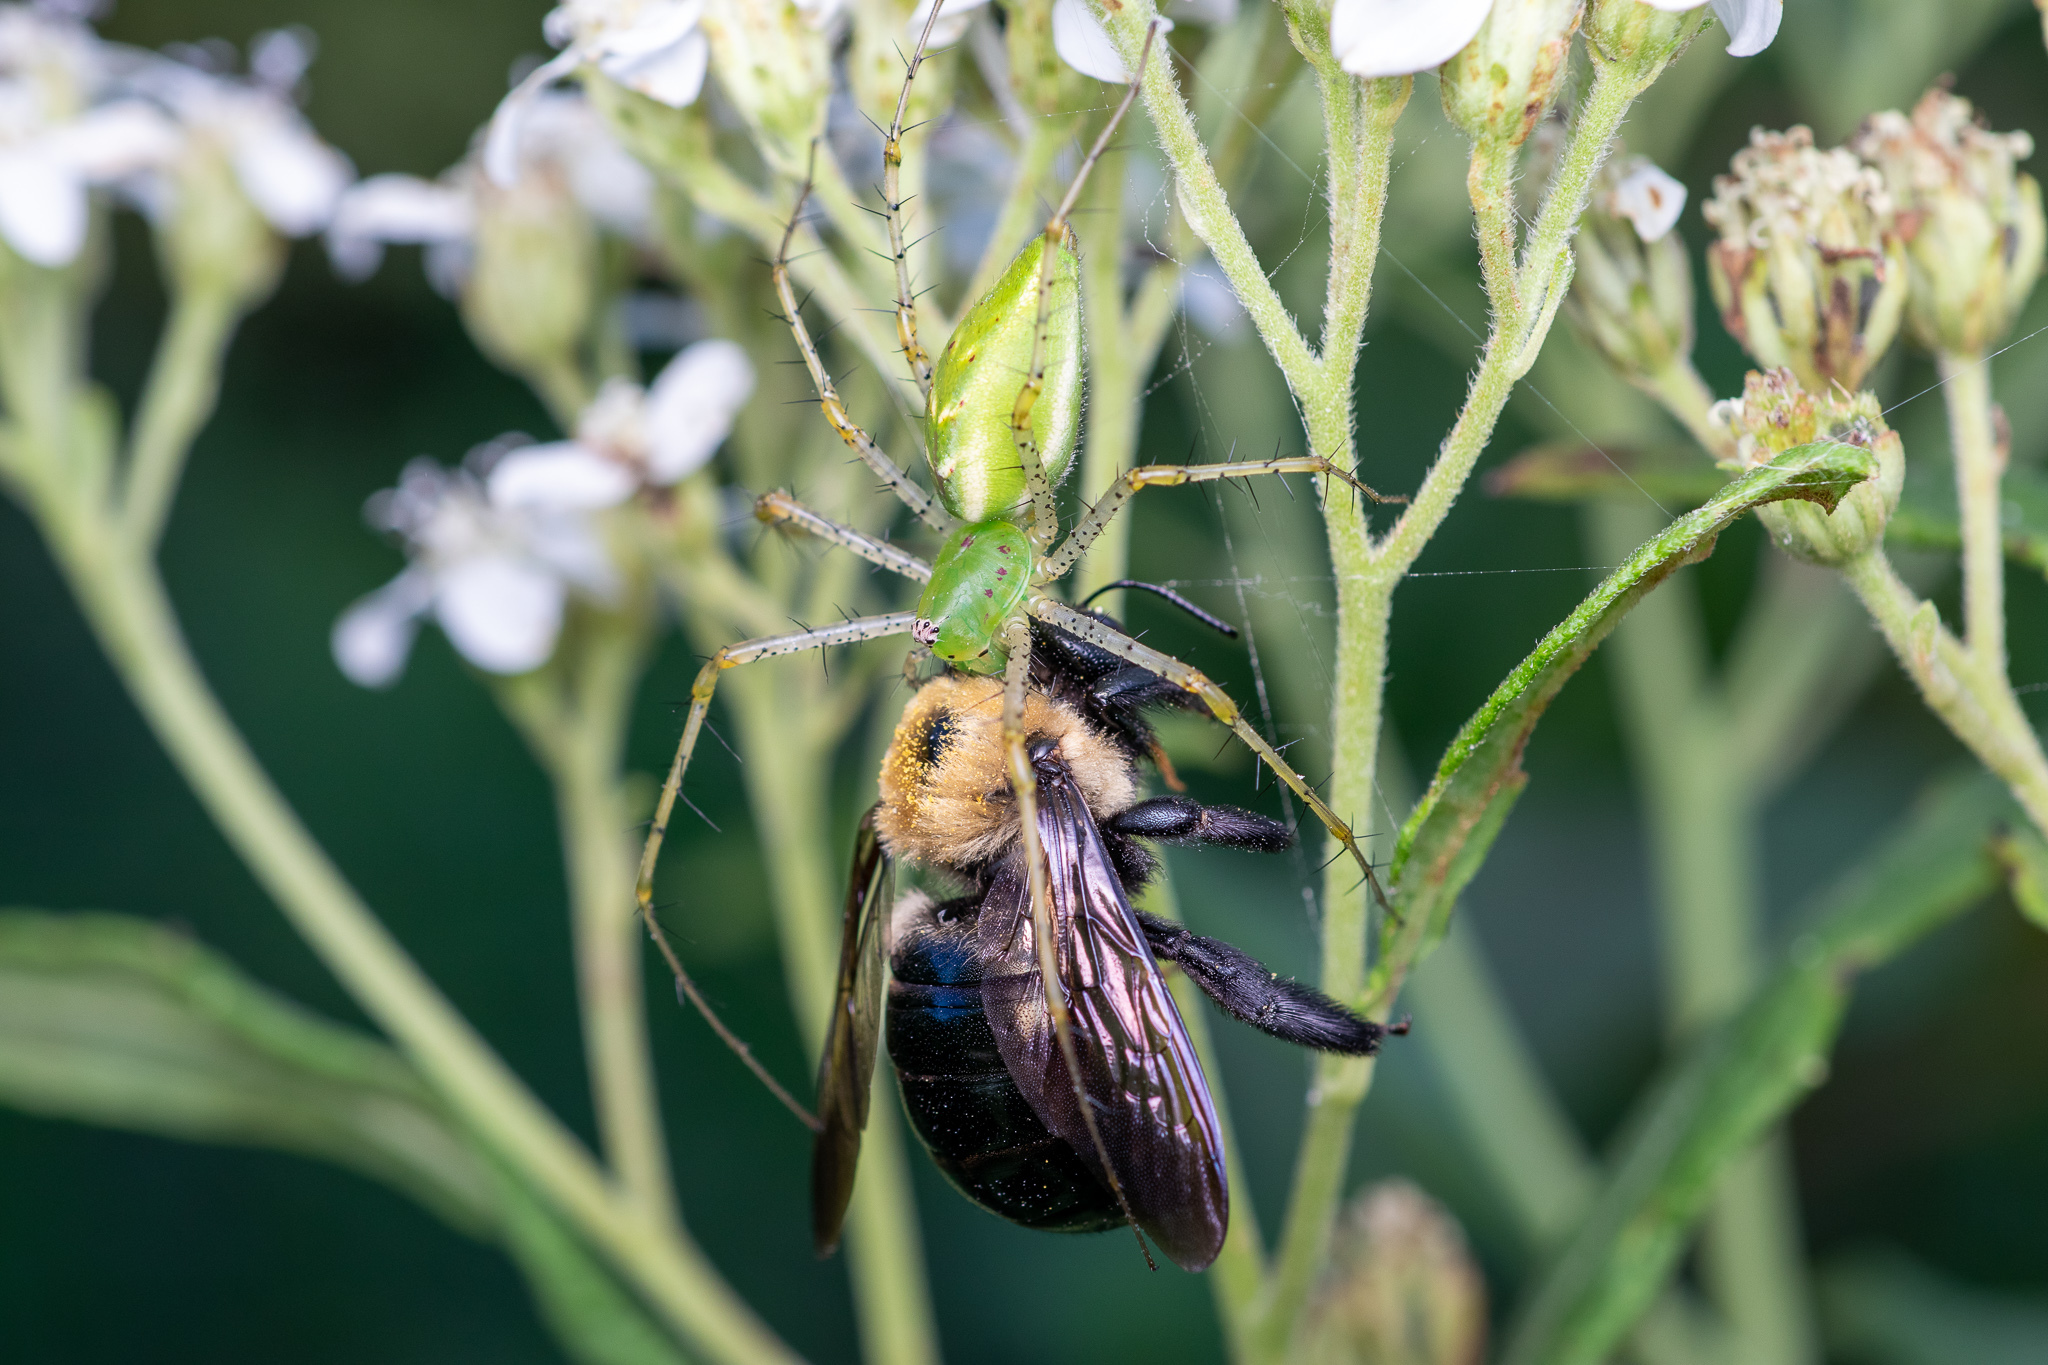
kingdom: Animalia
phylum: Arthropoda
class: Arachnida
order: Araneae
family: Oxyopidae
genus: Peucetia
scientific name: Peucetia viridans
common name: Lynx spiders
